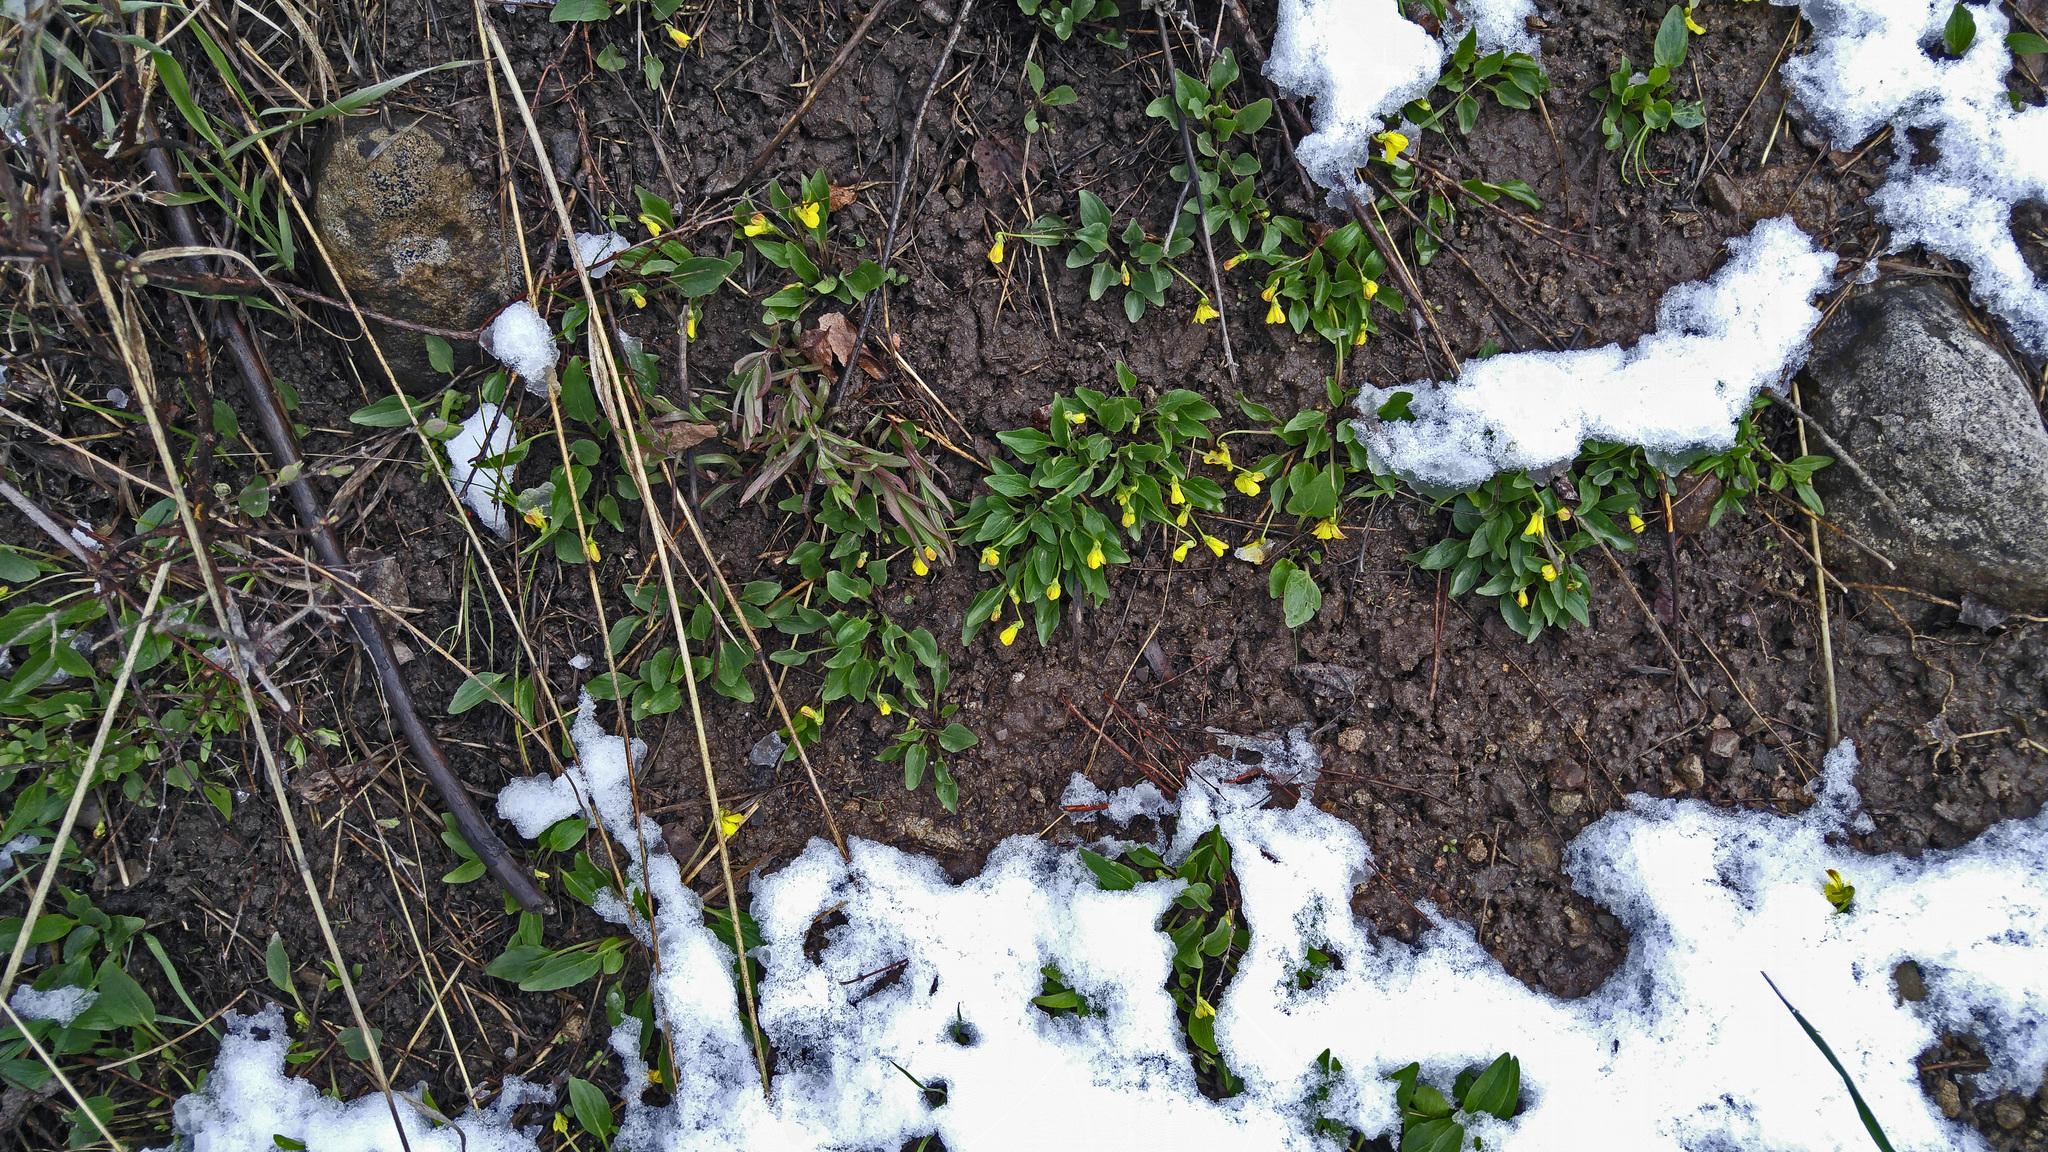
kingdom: Plantae
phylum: Tracheophyta
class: Magnoliopsida
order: Malpighiales
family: Violaceae
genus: Viola
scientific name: Viola nuttallii
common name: Yellow prairie violet
